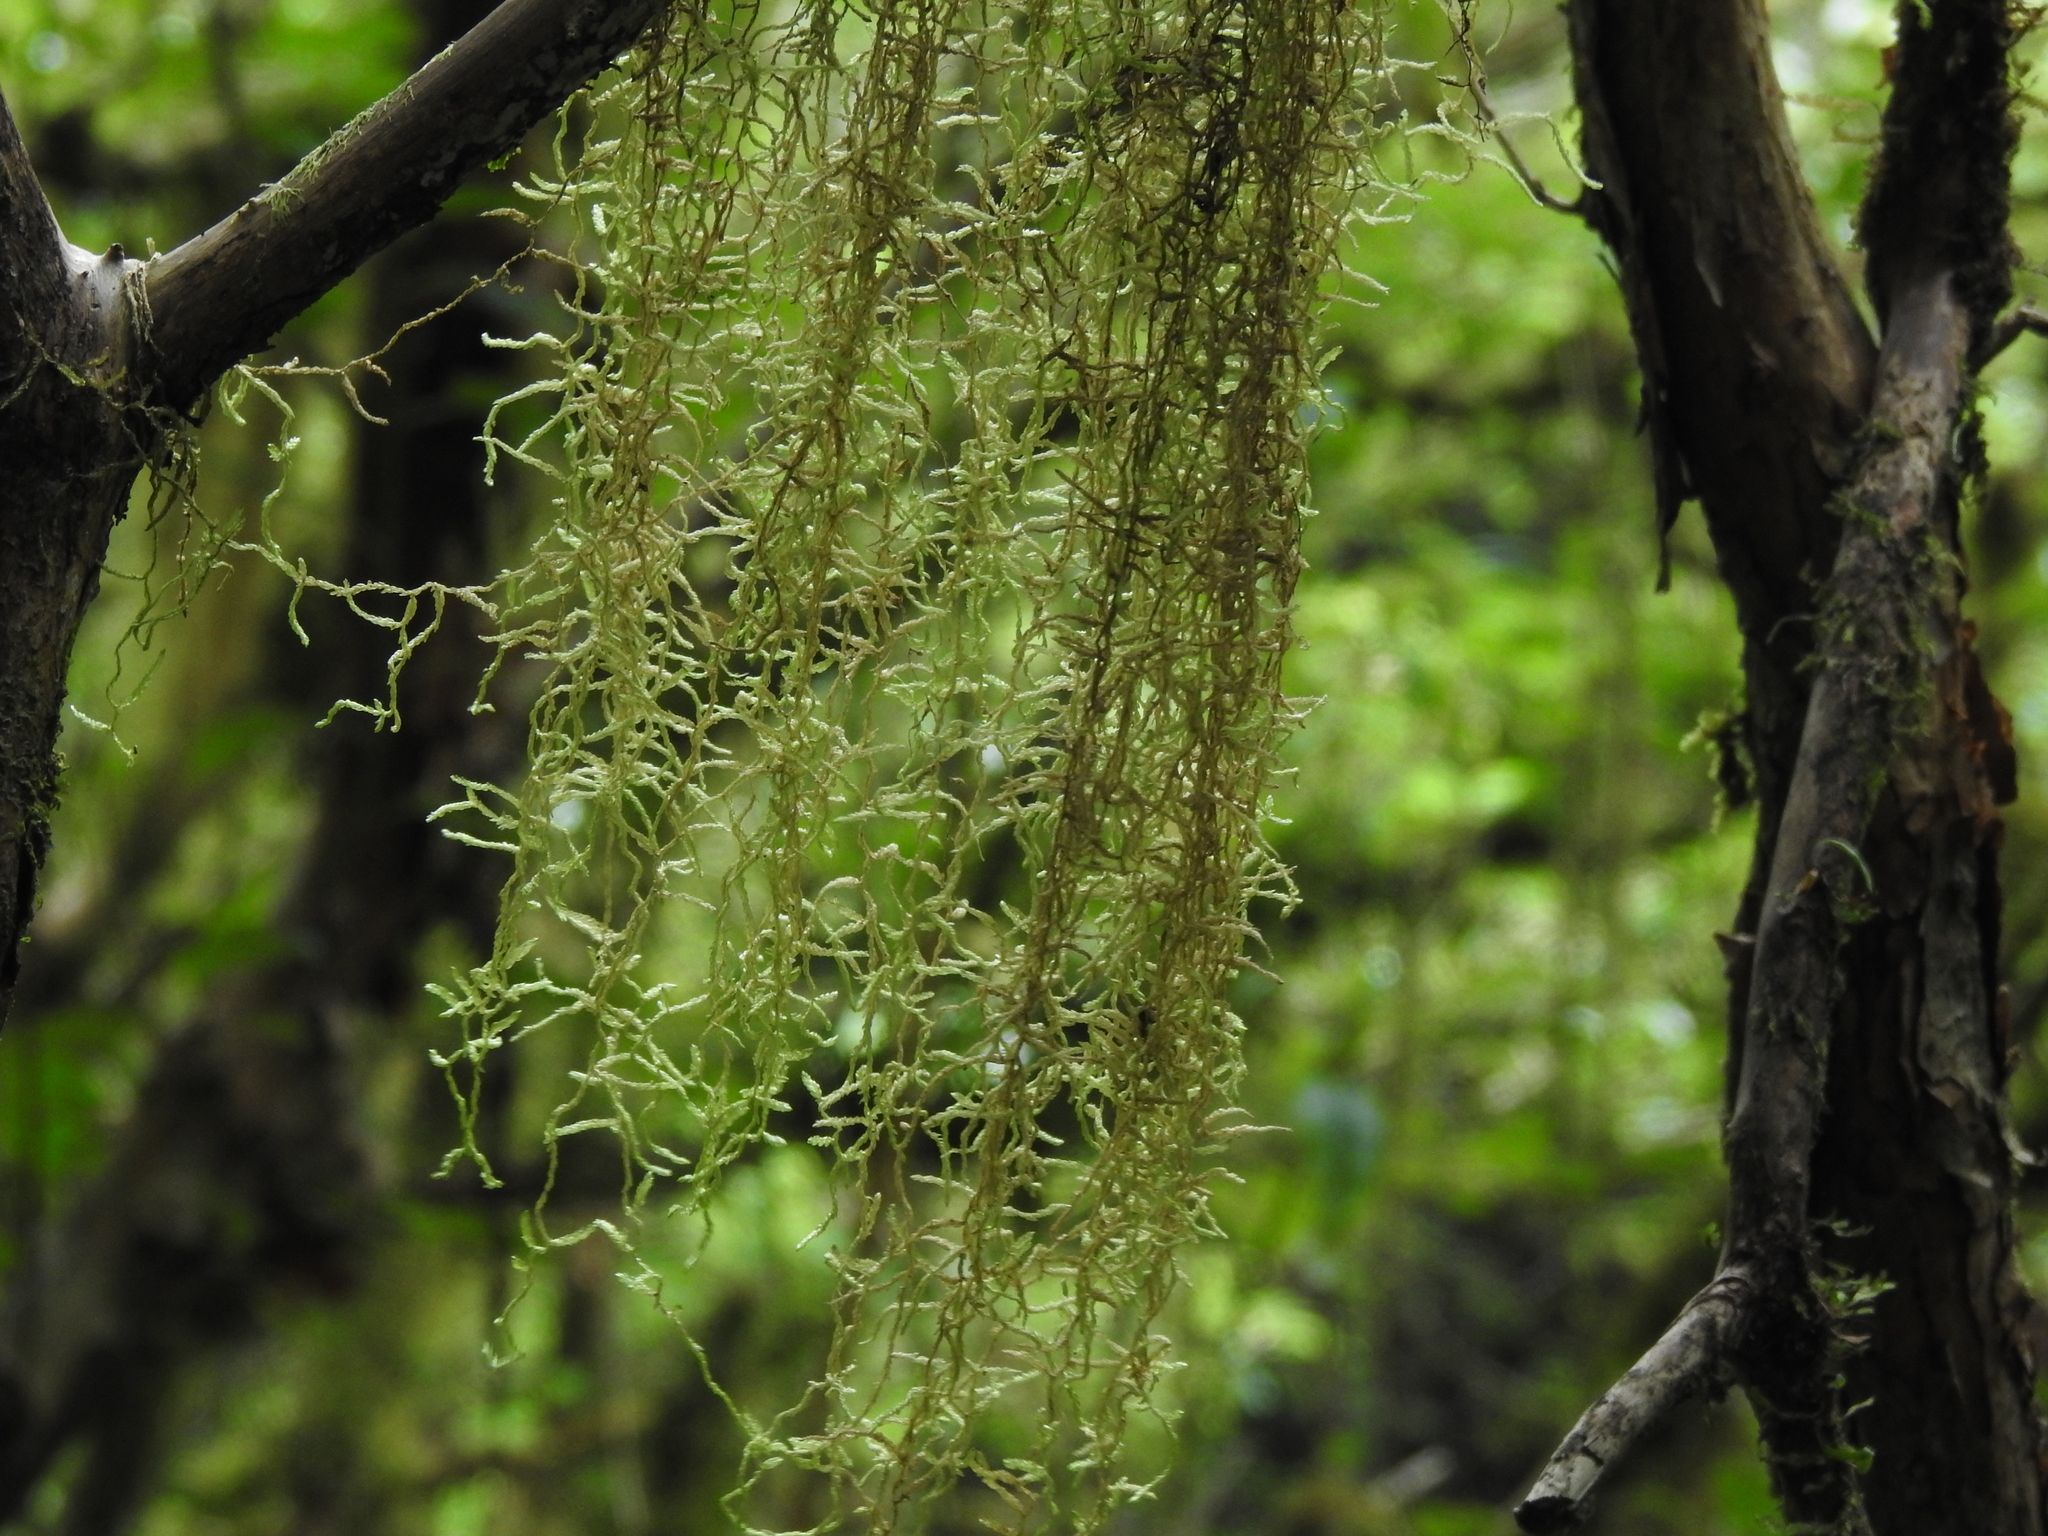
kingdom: Plantae
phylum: Bryophyta
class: Bryopsida
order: Hypnales
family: Lembophyllaceae
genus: Weymouthia
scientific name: Weymouthia mollis
